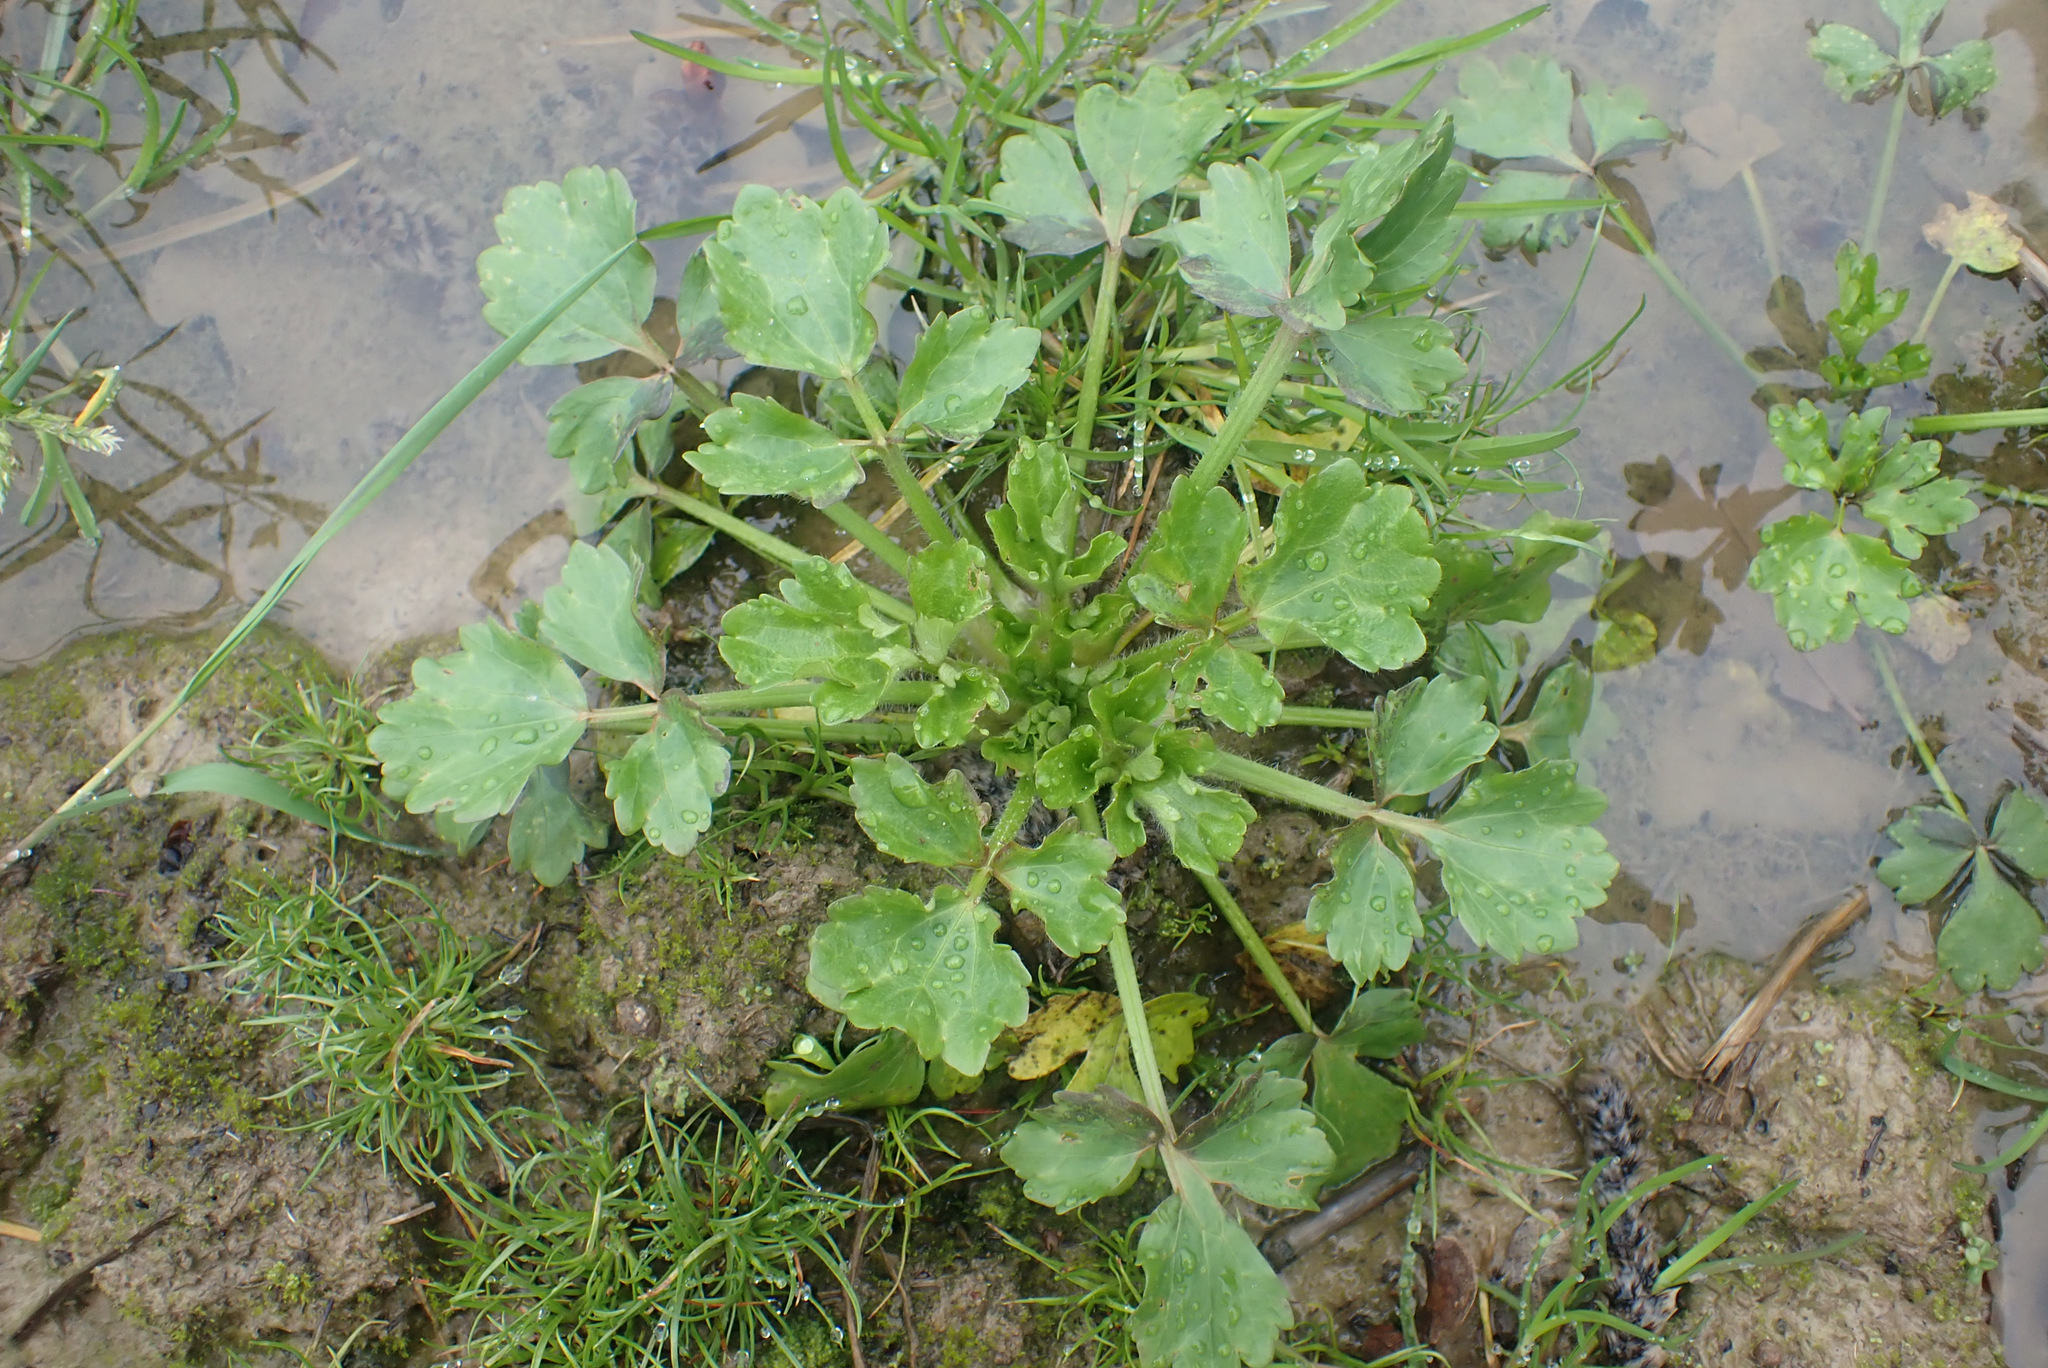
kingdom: Plantae
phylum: Tracheophyta
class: Magnoliopsida
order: Ranunculales
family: Ranunculaceae
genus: Ranunculus
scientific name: Ranunculus sardous
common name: Hairy buttercup
